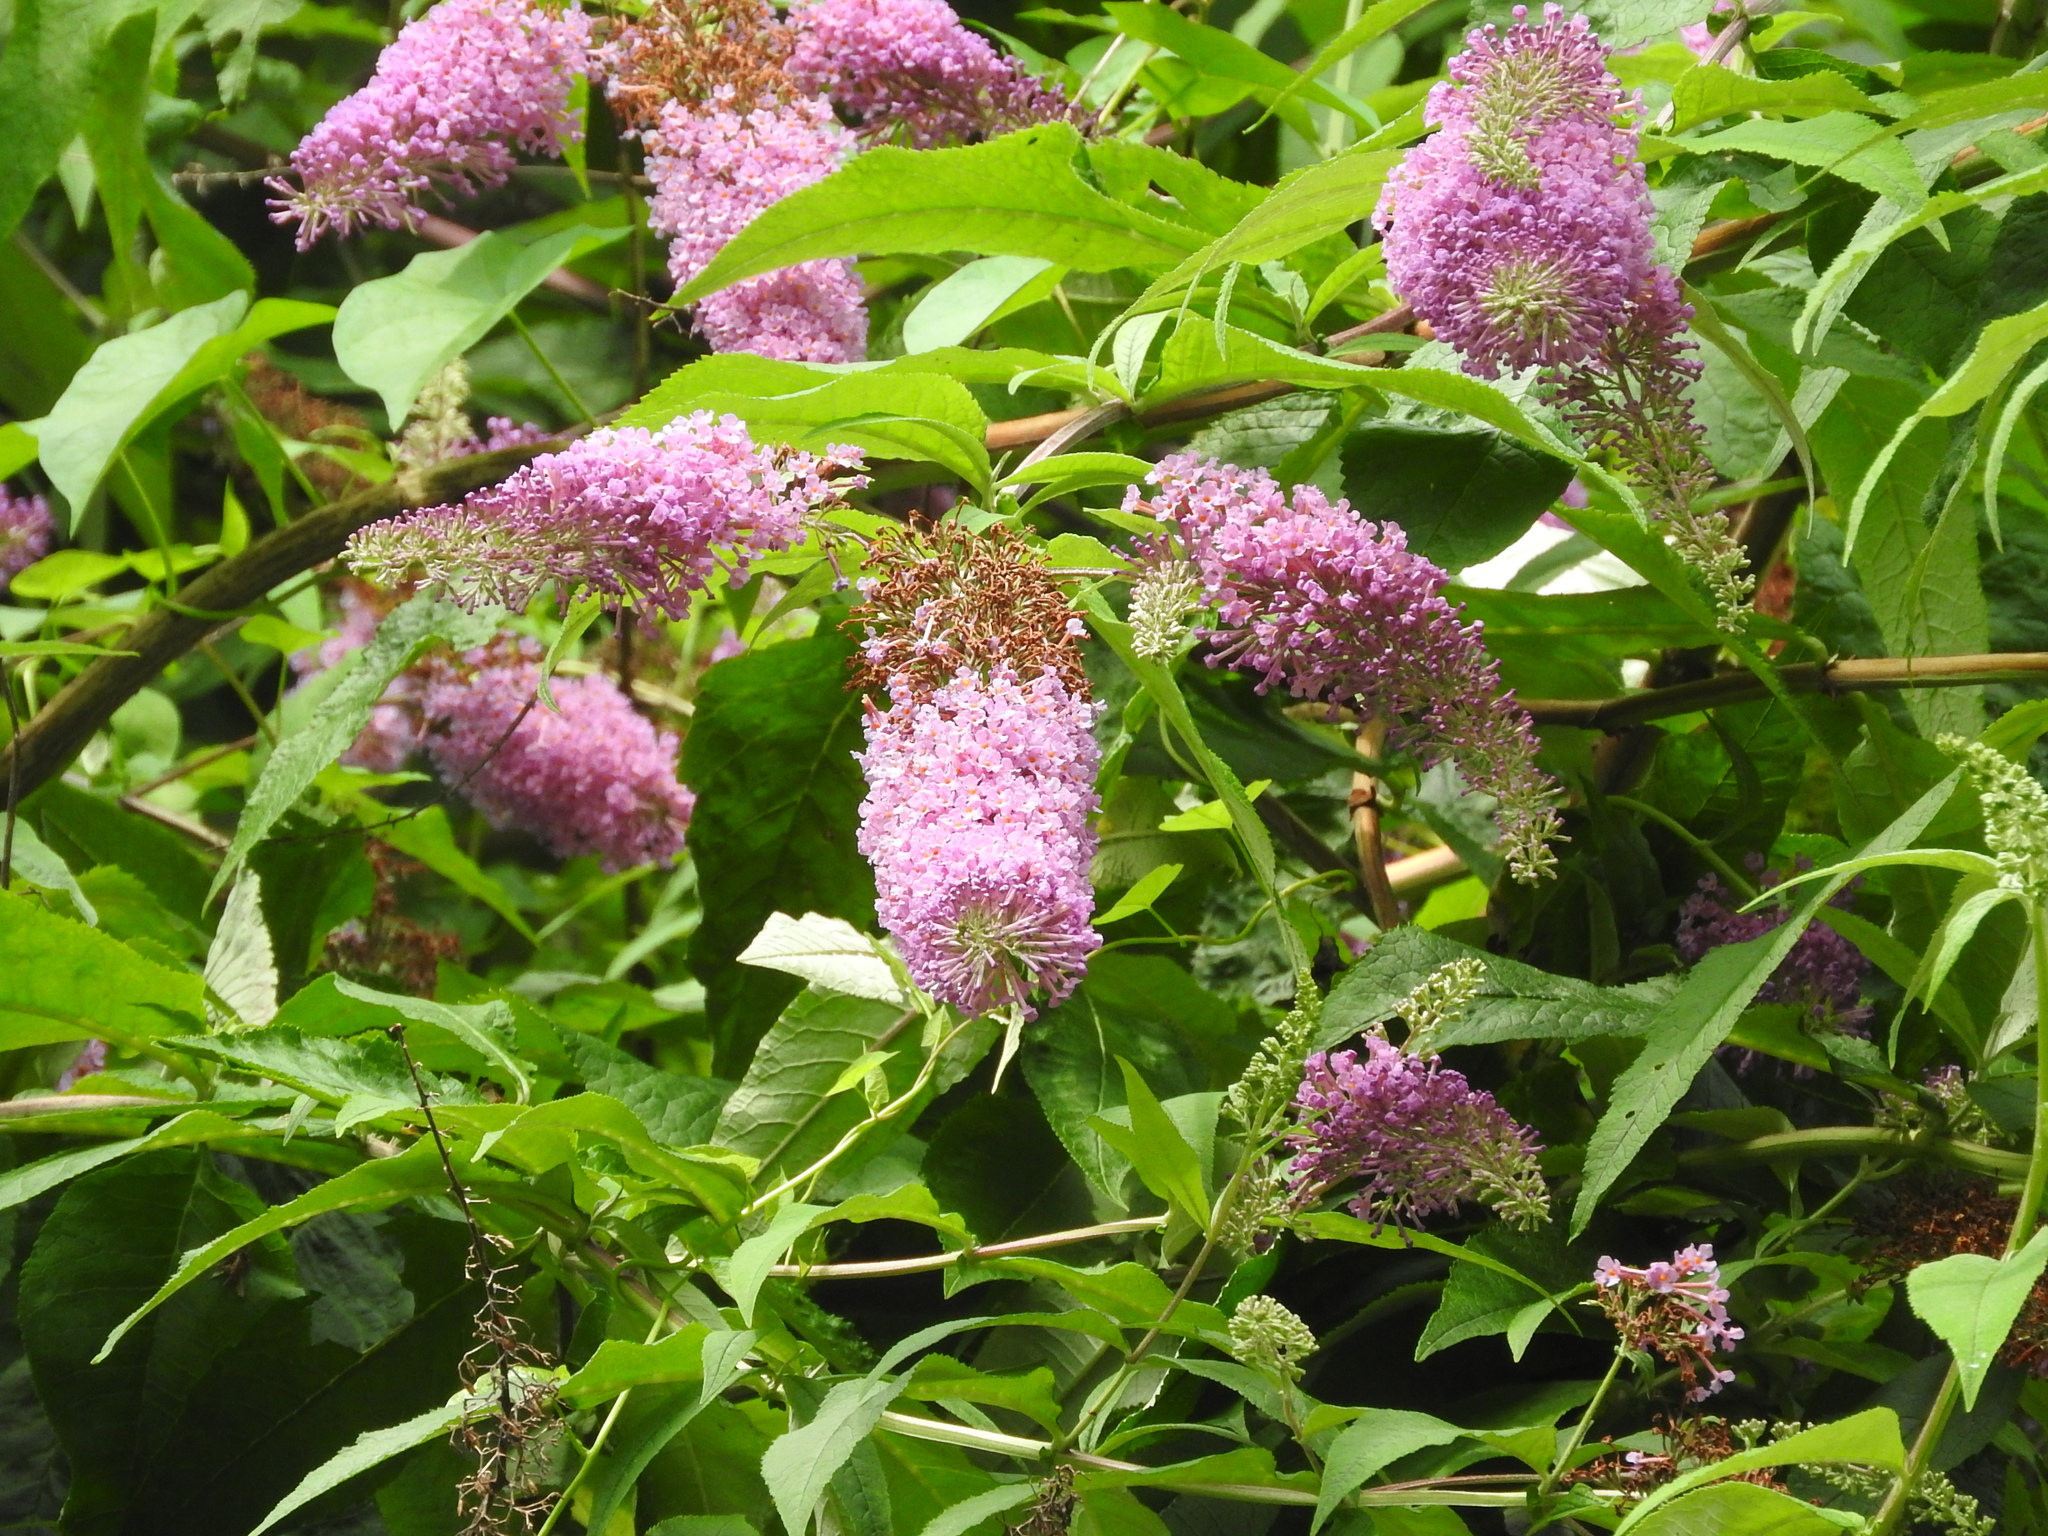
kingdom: Plantae
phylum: Tracheophyta
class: Magnoliopsida
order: Lamiales
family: Scrophulariaceae
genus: Buddleja
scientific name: Buddleja davidii
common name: Butterfly-bush
